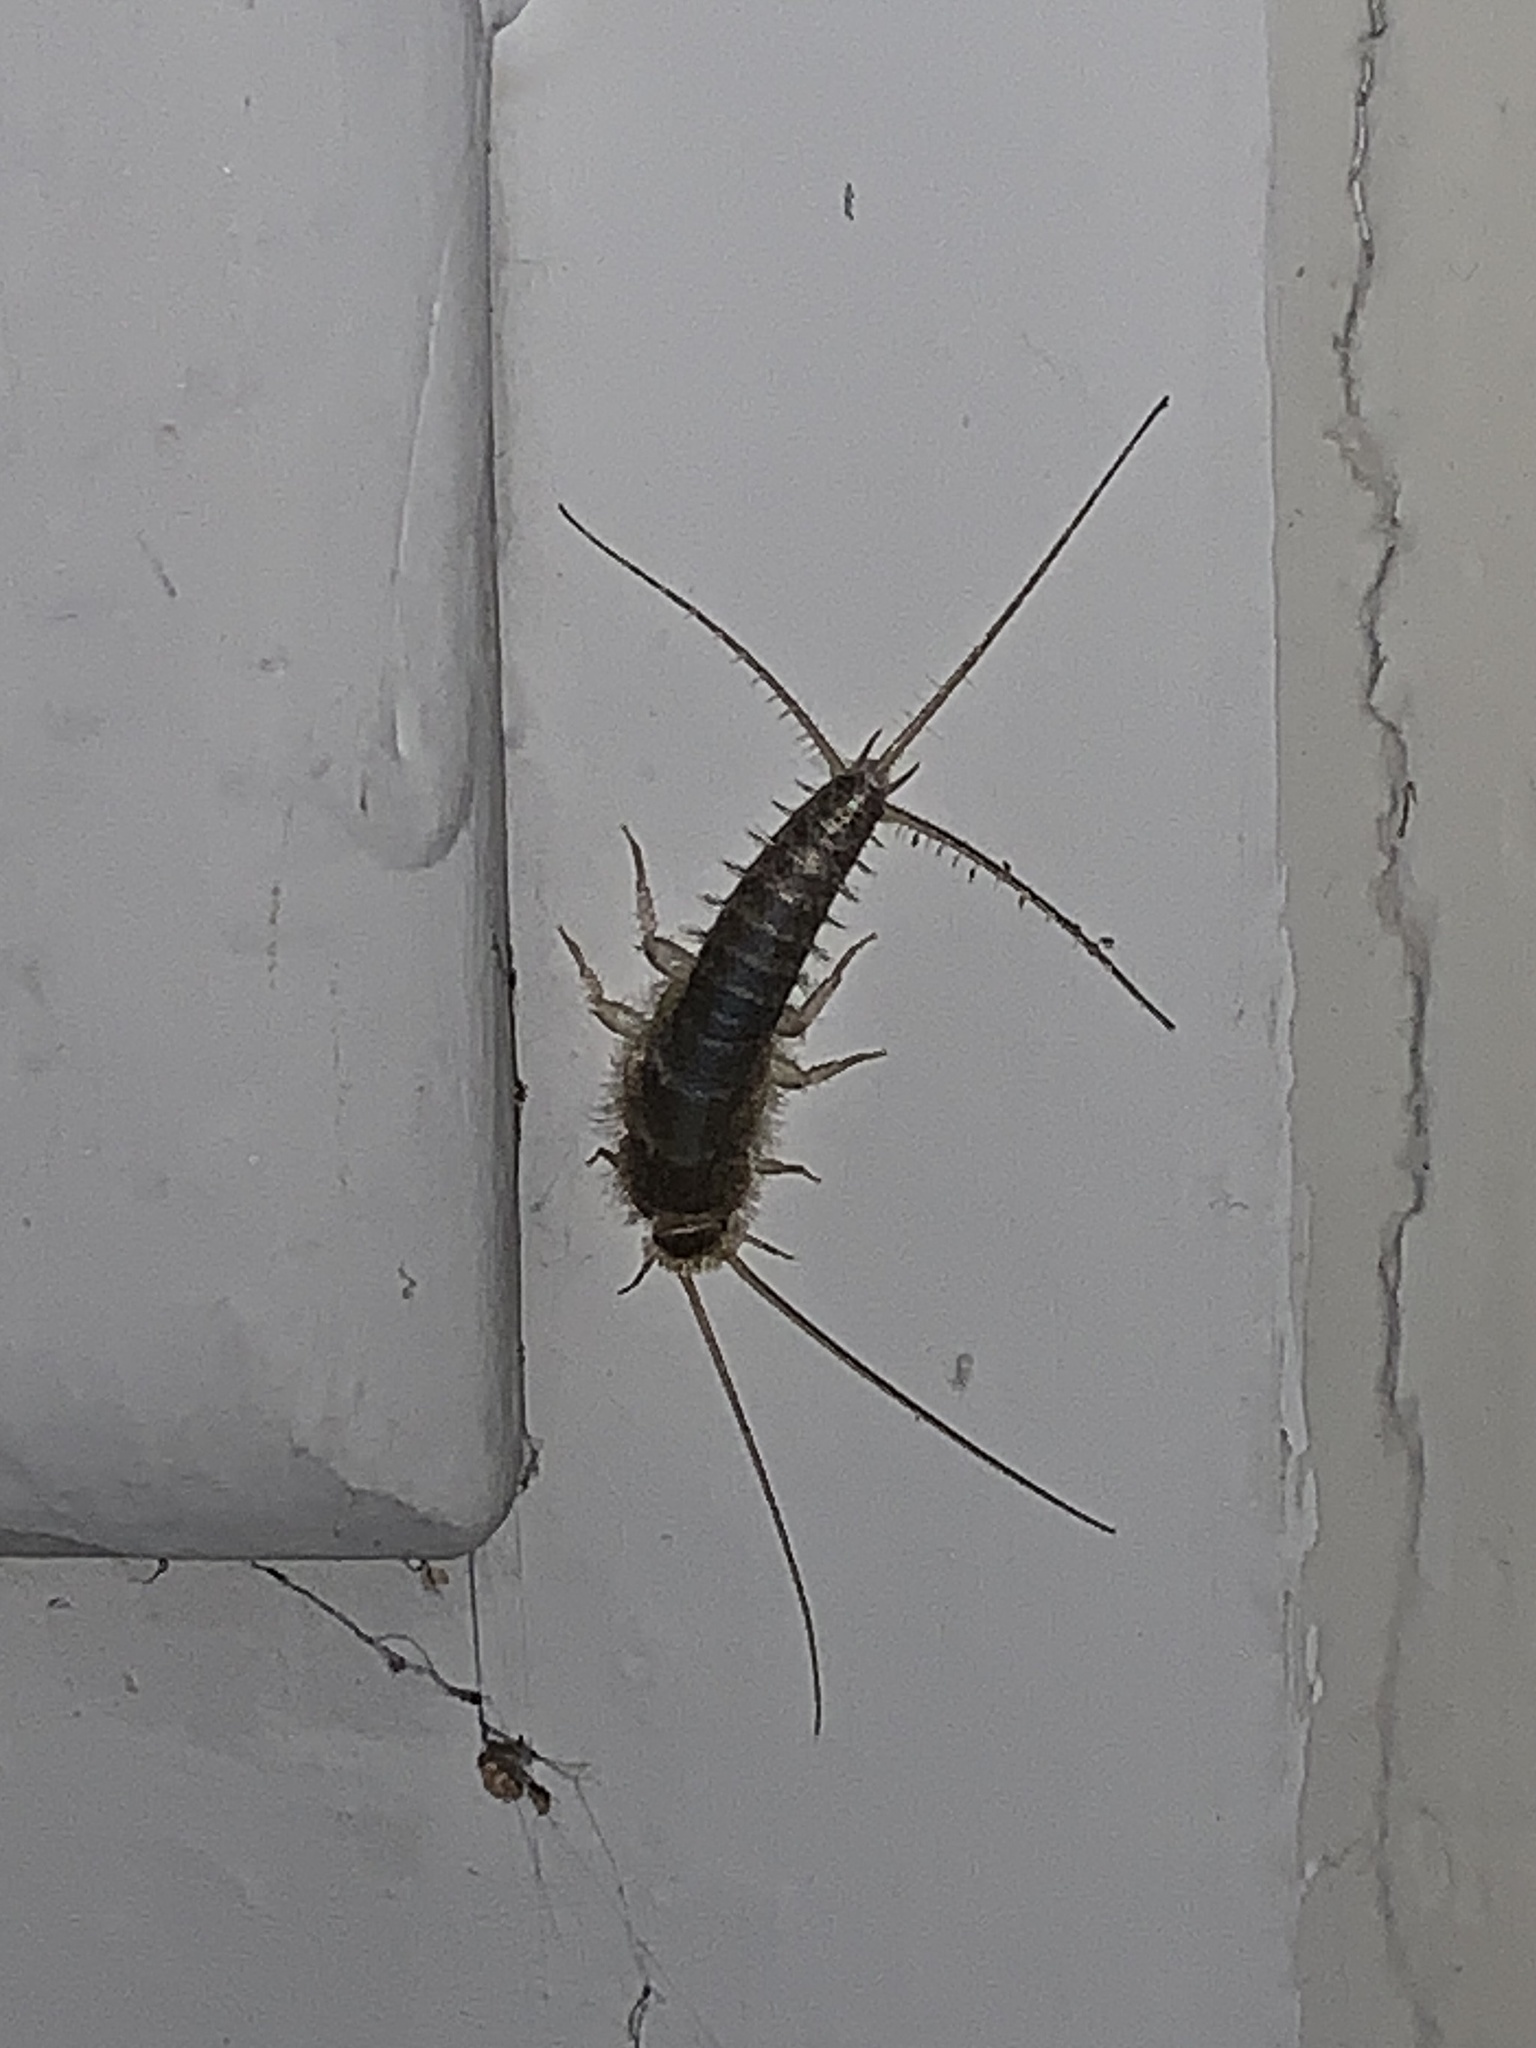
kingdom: Animalia
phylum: Arthropoda
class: Insecta
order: Zygentoma
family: Lepismatidae
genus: Ctenolepisma
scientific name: Ctenolepisma longicaudatum
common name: Silverfish
